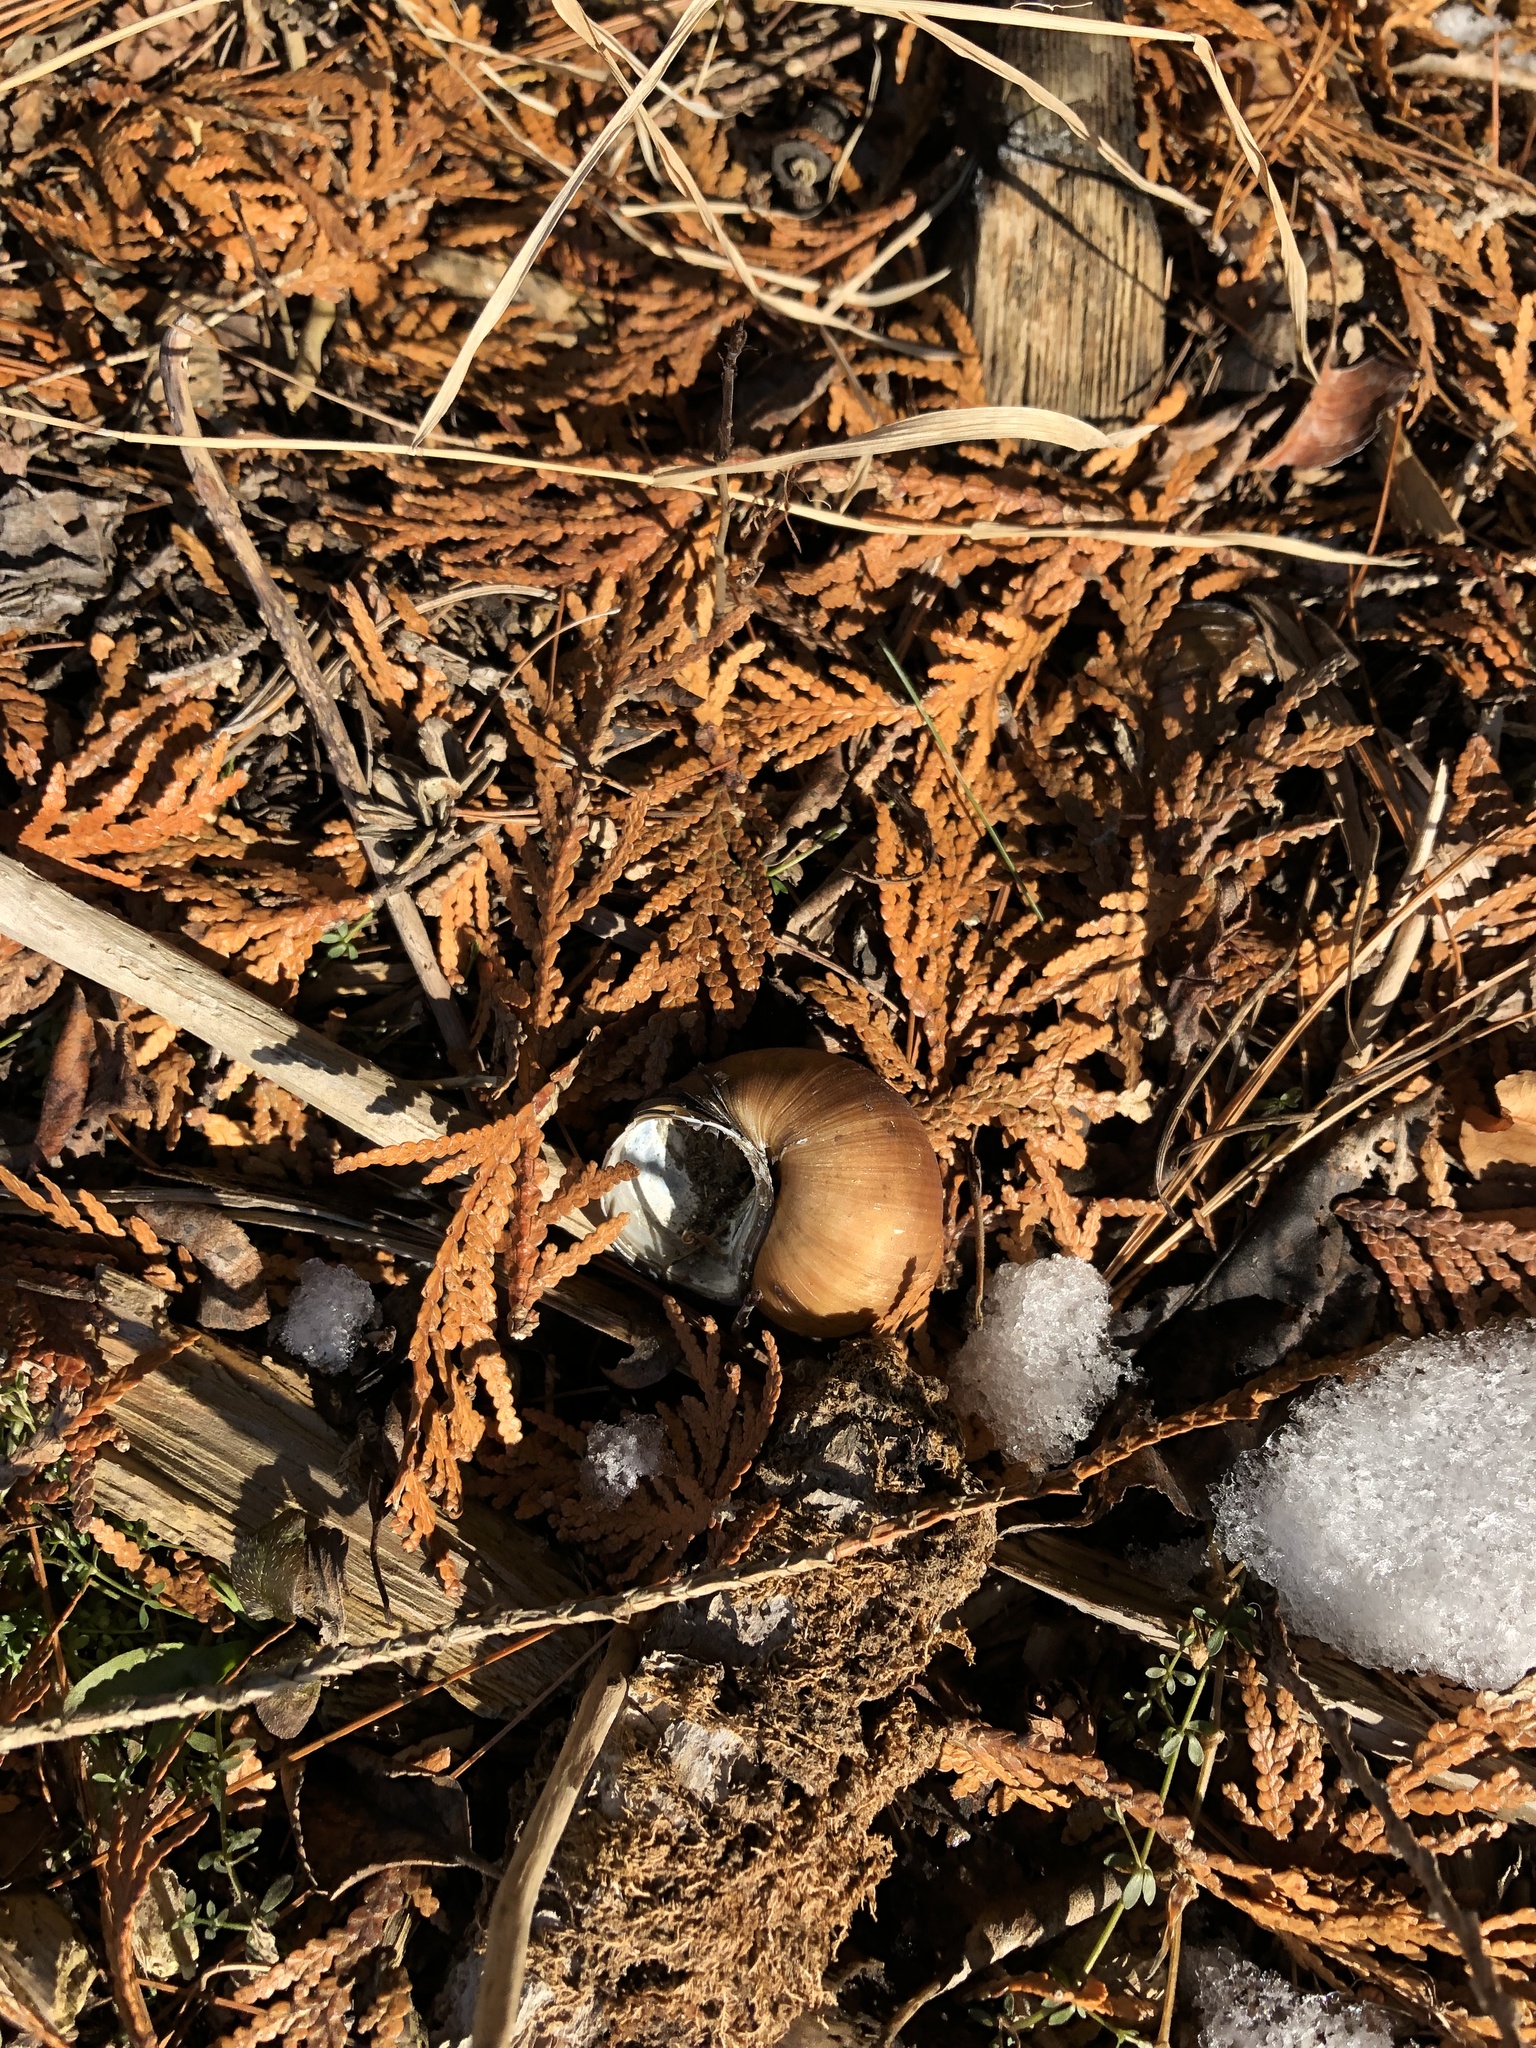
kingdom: Animalia
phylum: Mollusca
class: Gastropoda
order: Architaenioglossa
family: Viviparidae
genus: Cipangopaludina
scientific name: Cipangopaludina chinensis
